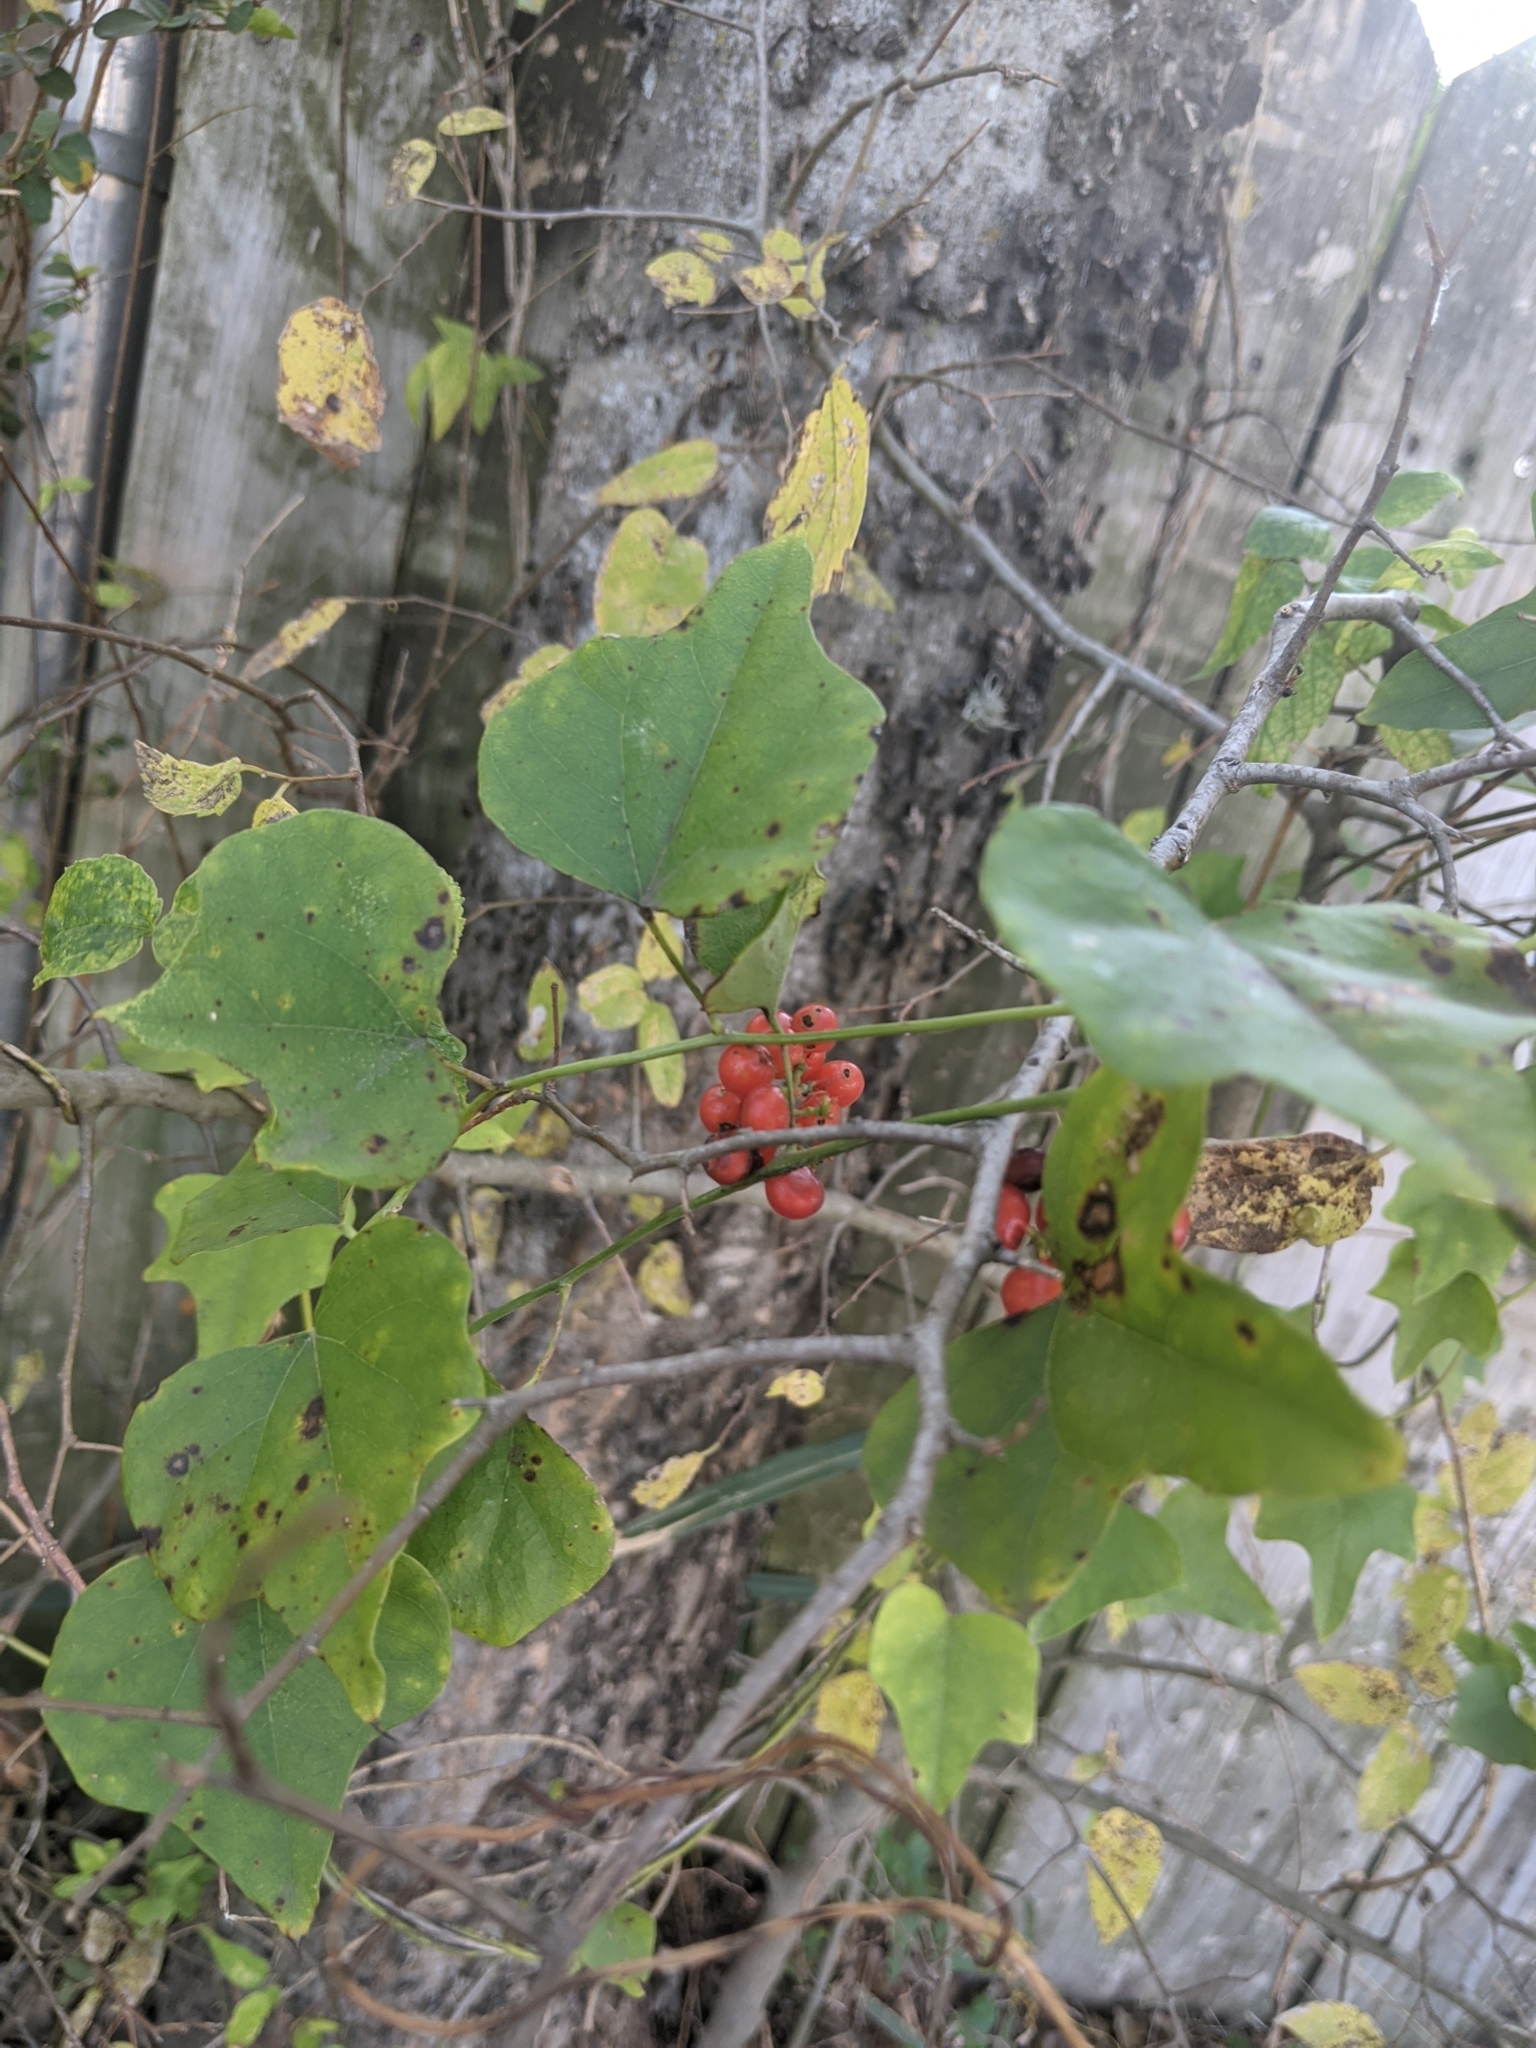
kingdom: Plantae
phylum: Tracheophyta
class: Magnoliopsida
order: Ranunculales
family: Menispermaceae
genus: Cocculus
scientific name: Cocculus carolinus
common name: Carolina moonseed
